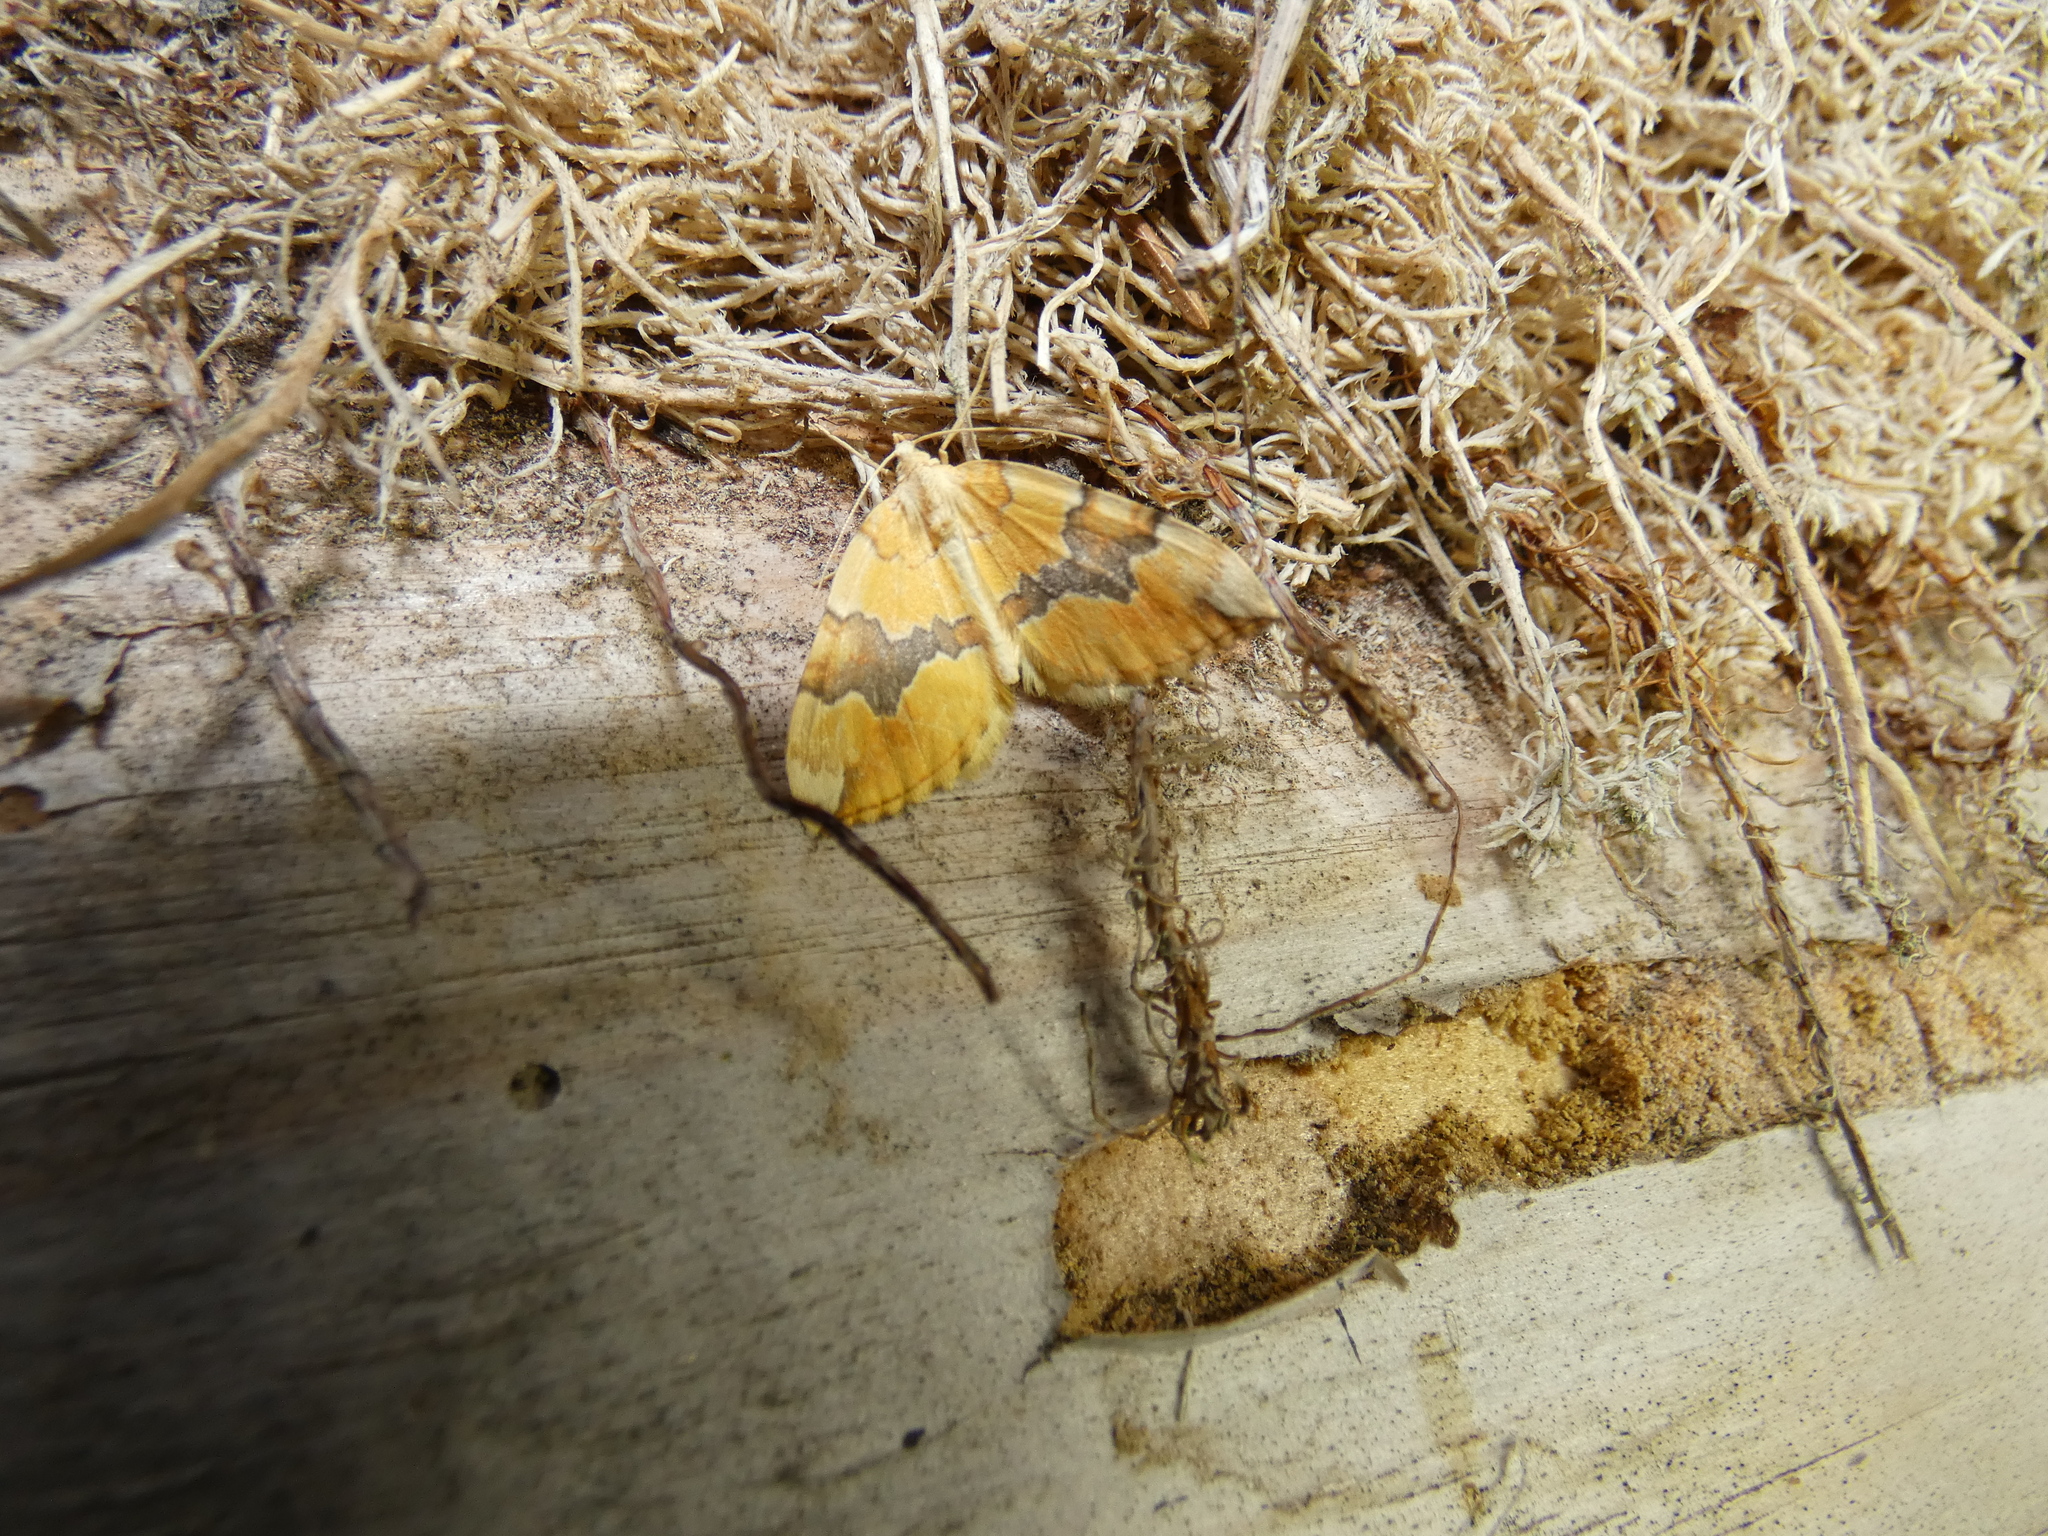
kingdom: Animalia
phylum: Arthropoda
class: Insecta
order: Lepidoptera
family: Geometridae
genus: Cidaria
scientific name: Cidaria fulvata
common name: Barred yellow
